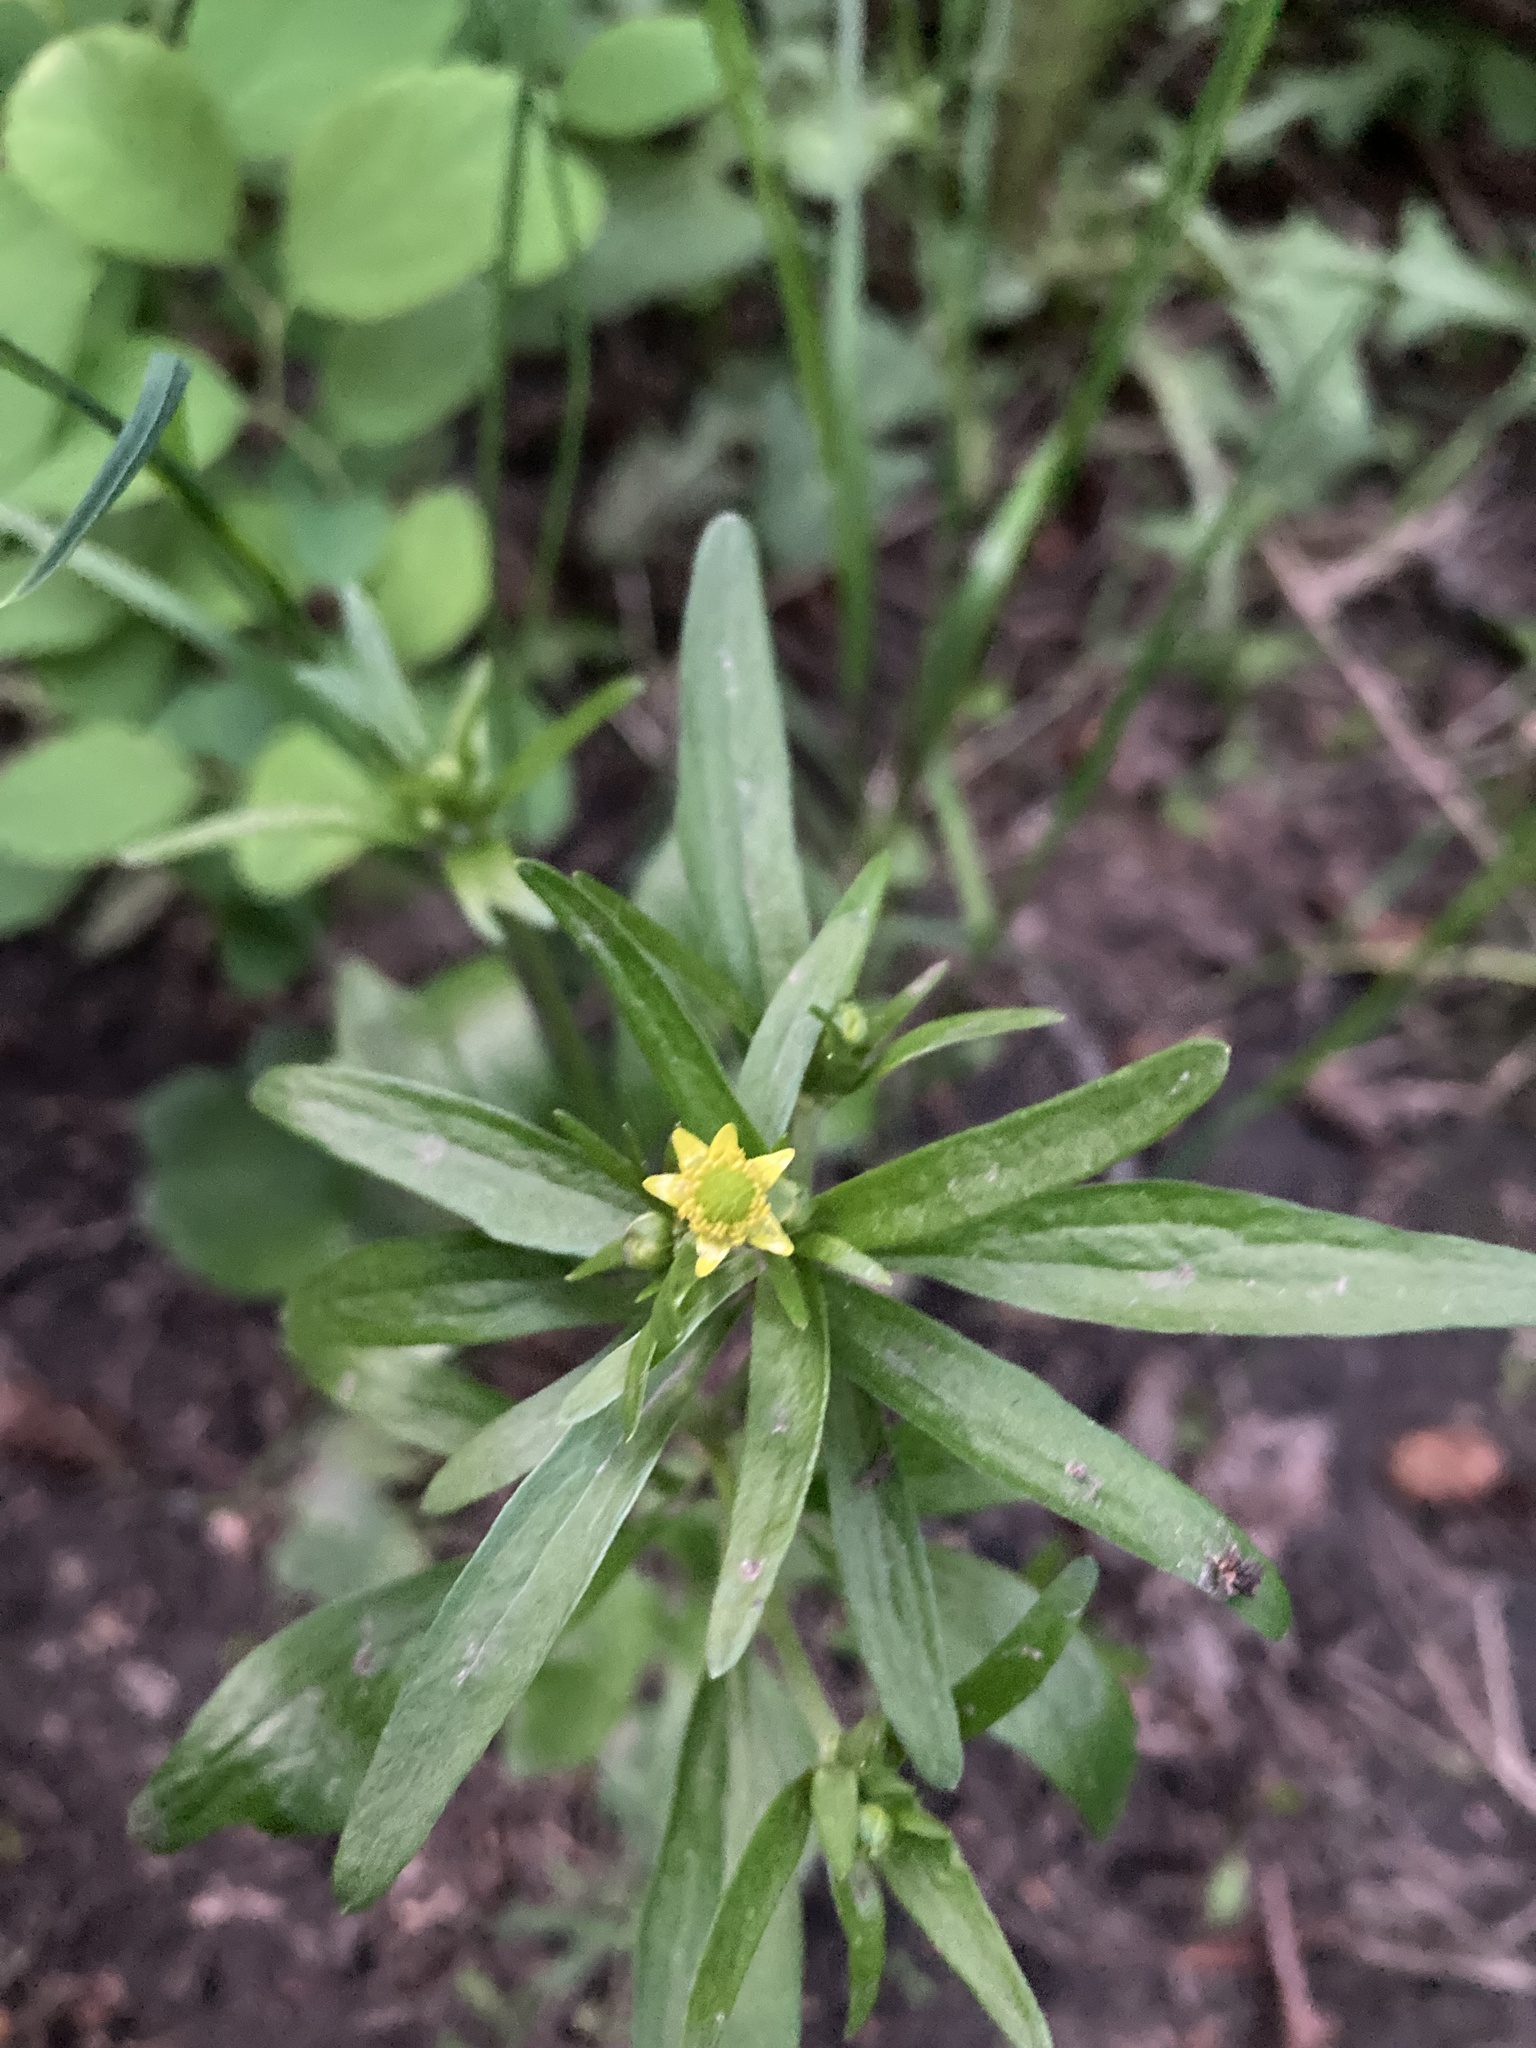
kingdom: Plantae
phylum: Tracheophyta
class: Magnoliopsida
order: Ranunculales
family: Ranunculaceae
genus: Ranunculus
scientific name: Ranunculus abortivus
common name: Early wood buttercup
